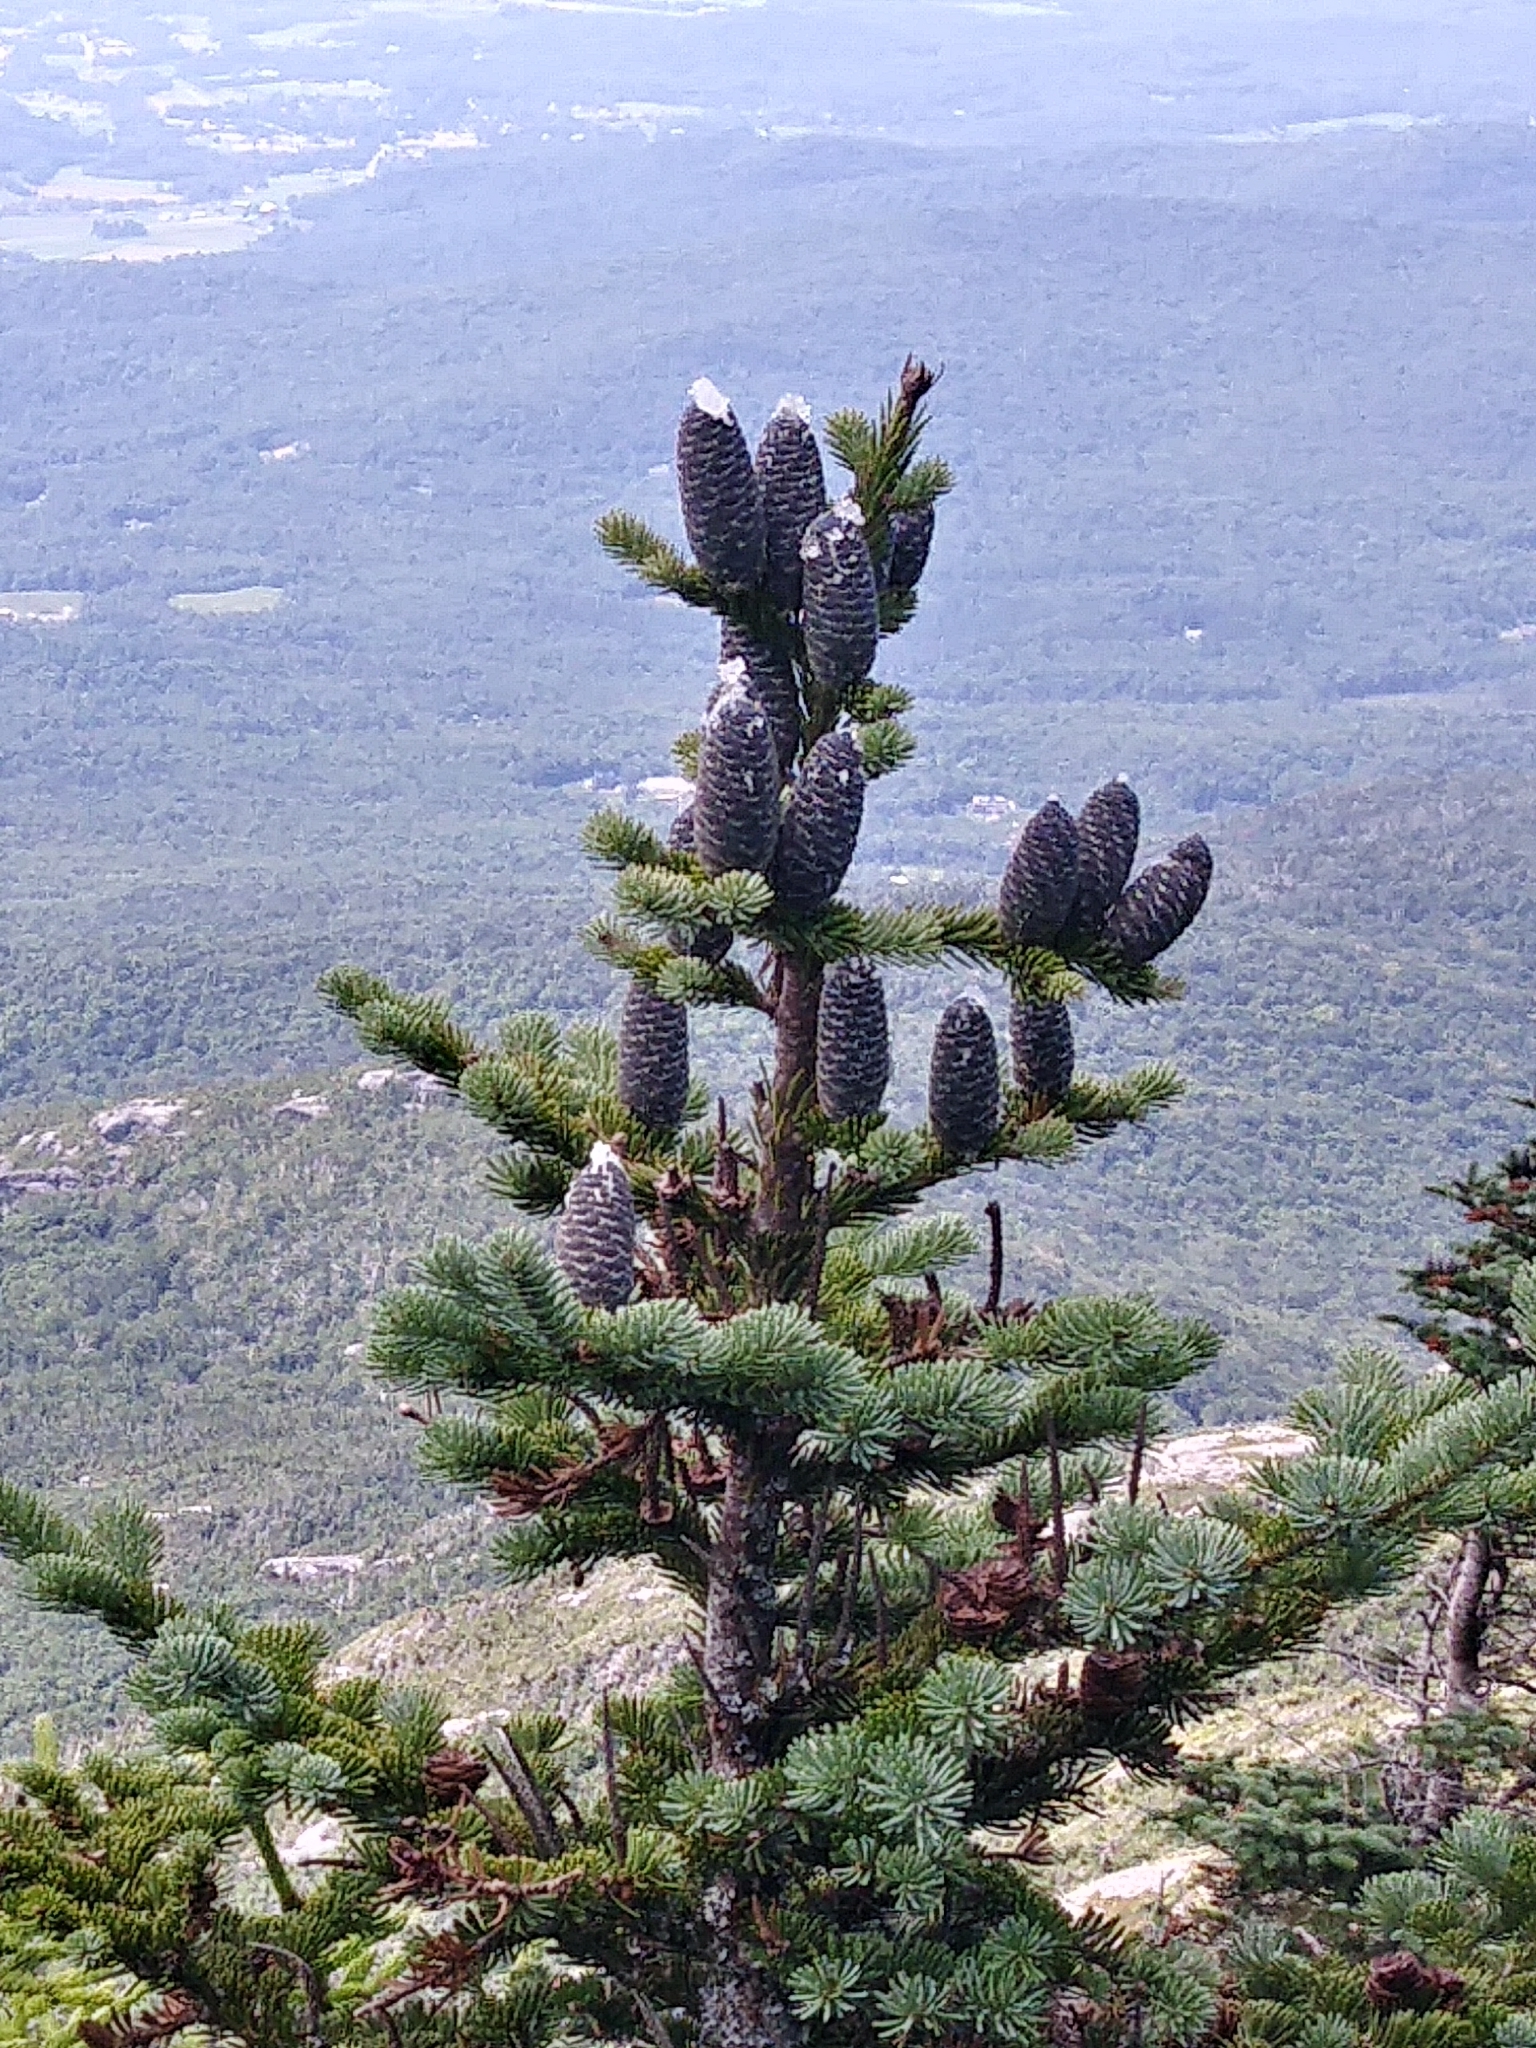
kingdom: Plantae
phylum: Tracheophyta
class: Pinopsida
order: Pinales
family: Pinaceae
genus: Abies
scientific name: Abies balsamea
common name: Balsam fir
